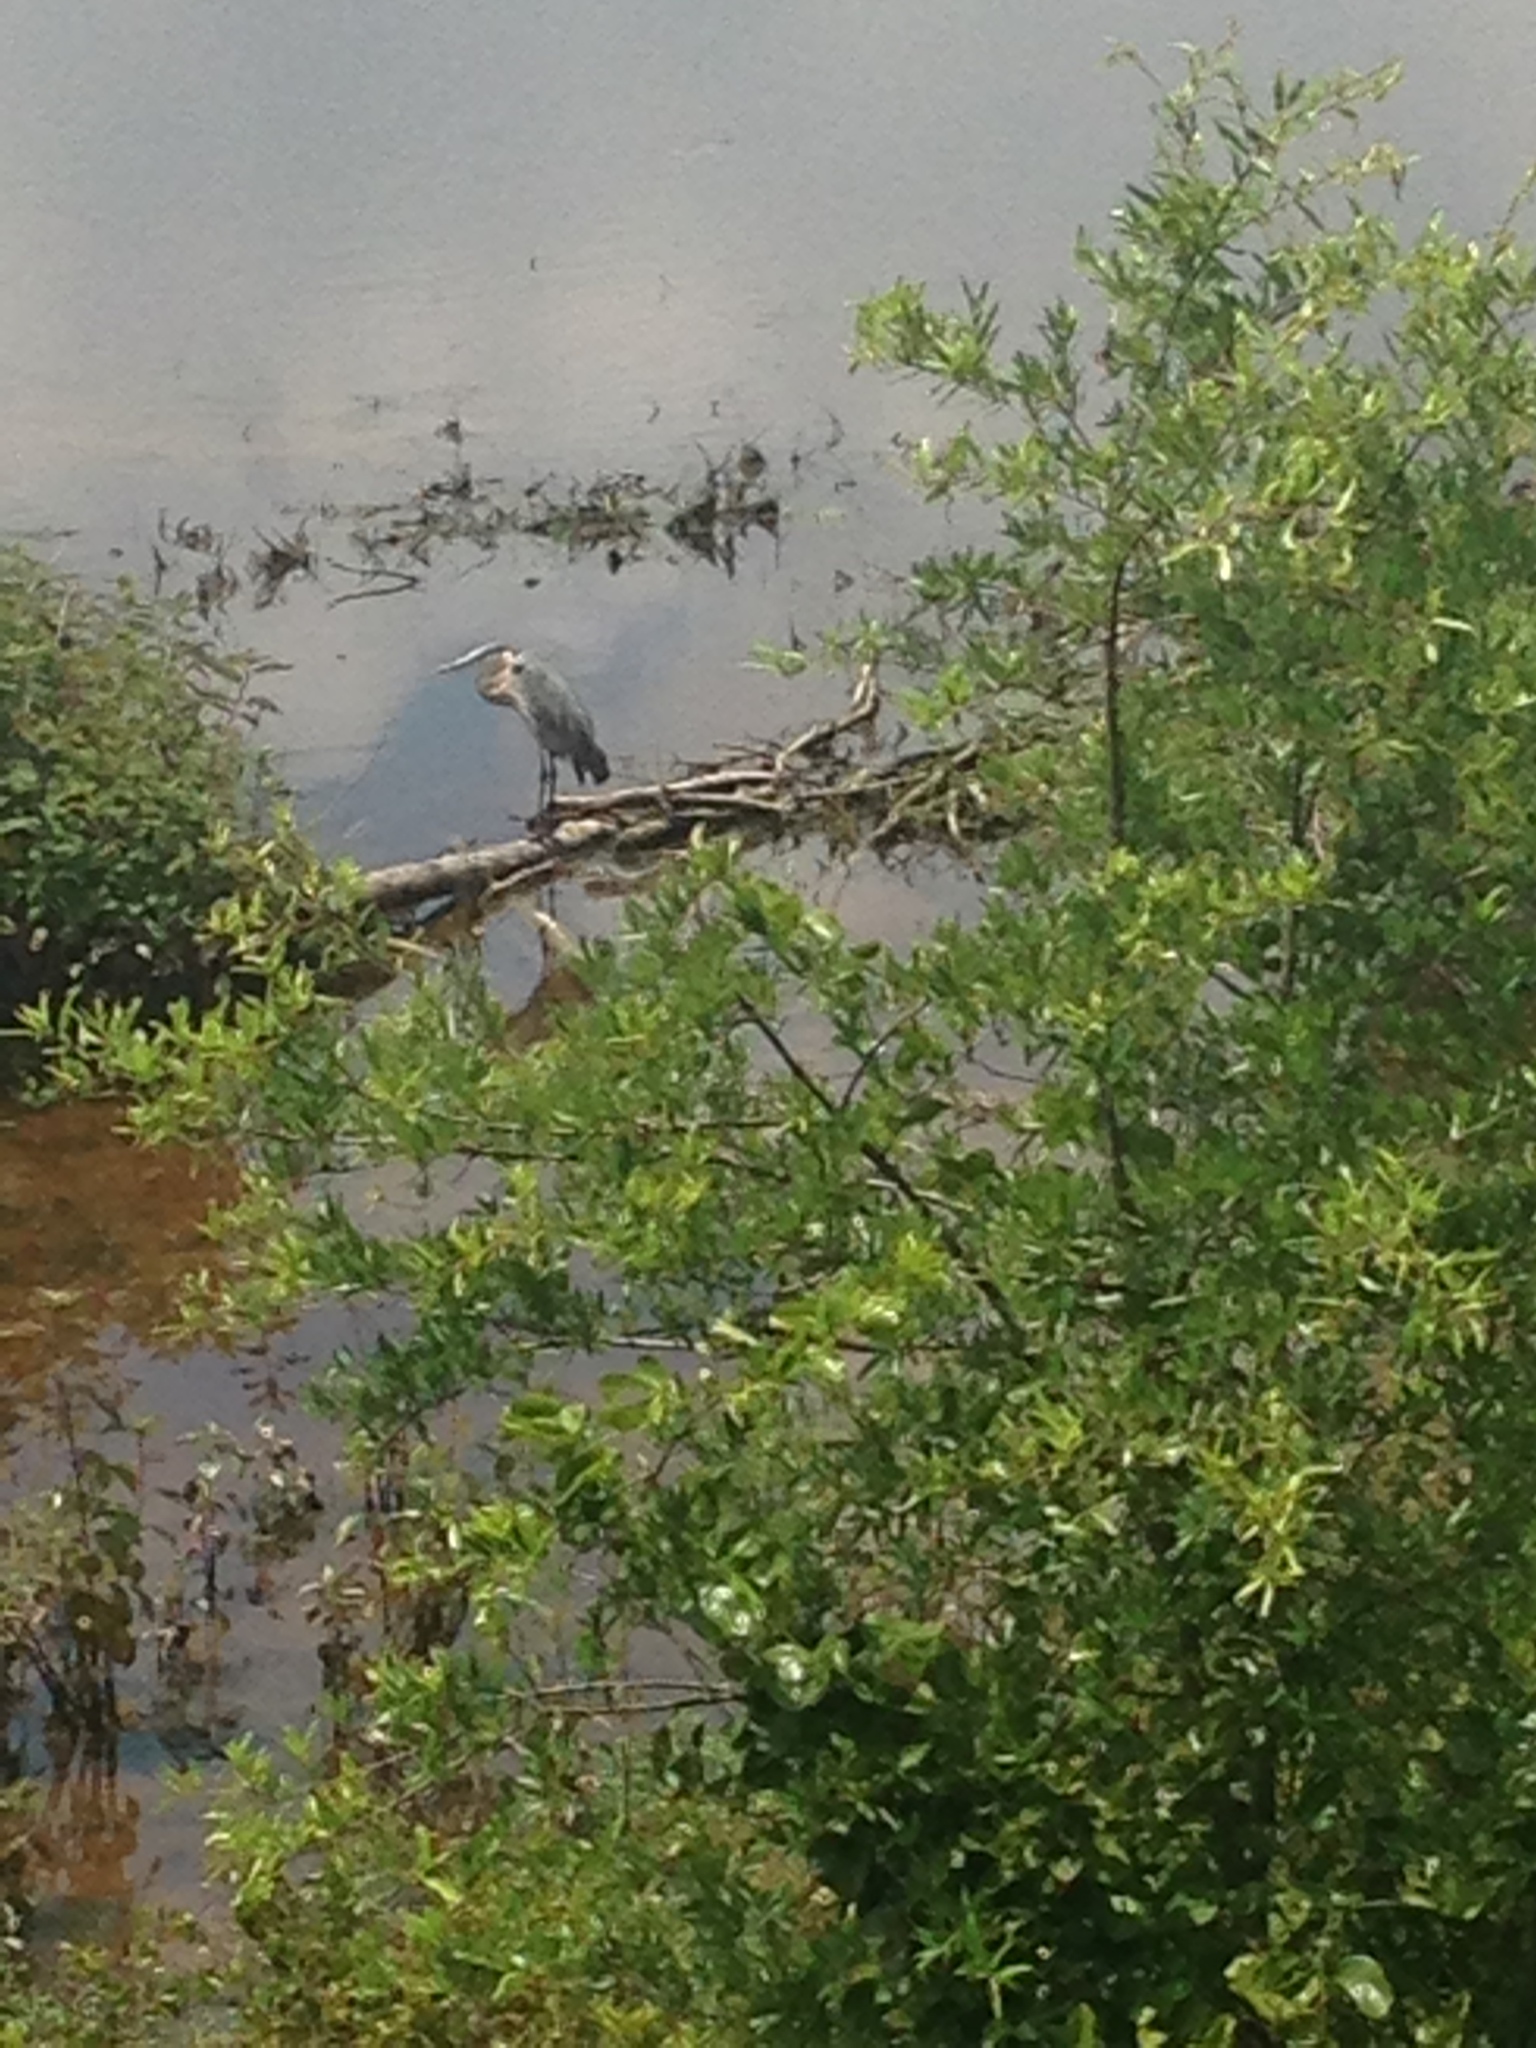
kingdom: Animalia
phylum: Chordata
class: Aves
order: Pelecaniformes
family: Ardeidae
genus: Ardea
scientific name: Ardea herodias
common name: Great blue heron
